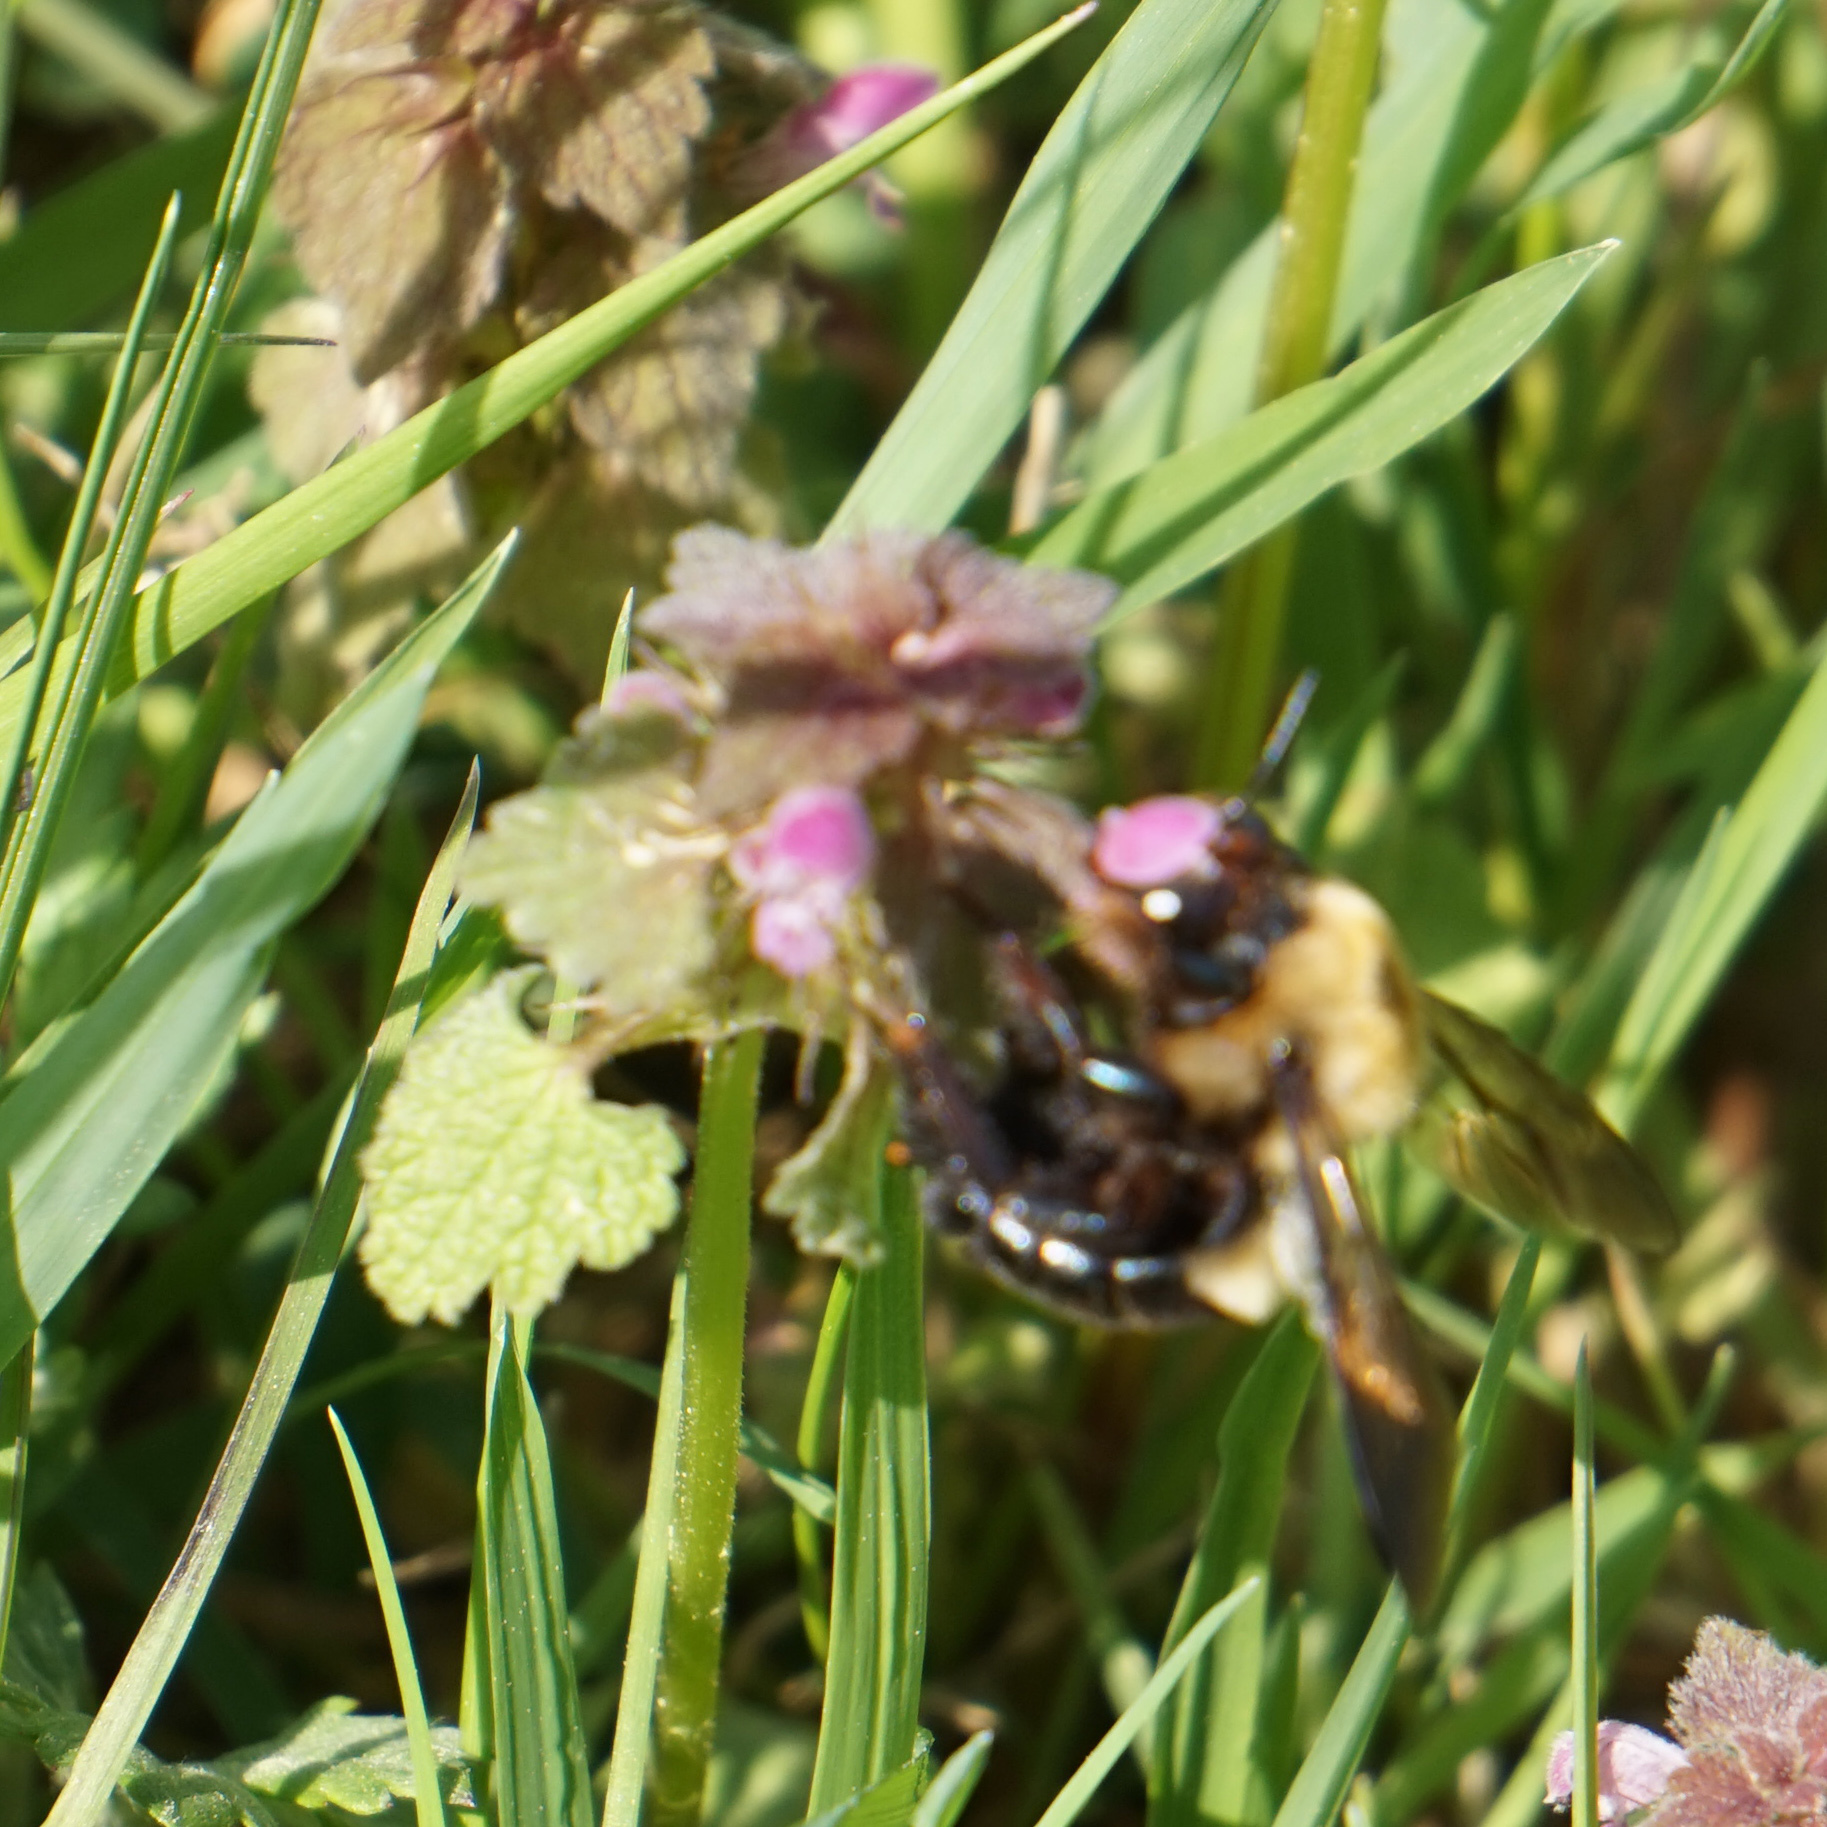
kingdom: Animalia
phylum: Arthropoda
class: Insecta
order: Hymenoptera
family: Apidae
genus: Xylocopa
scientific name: Xylocopa virginica
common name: Carpenter bee
